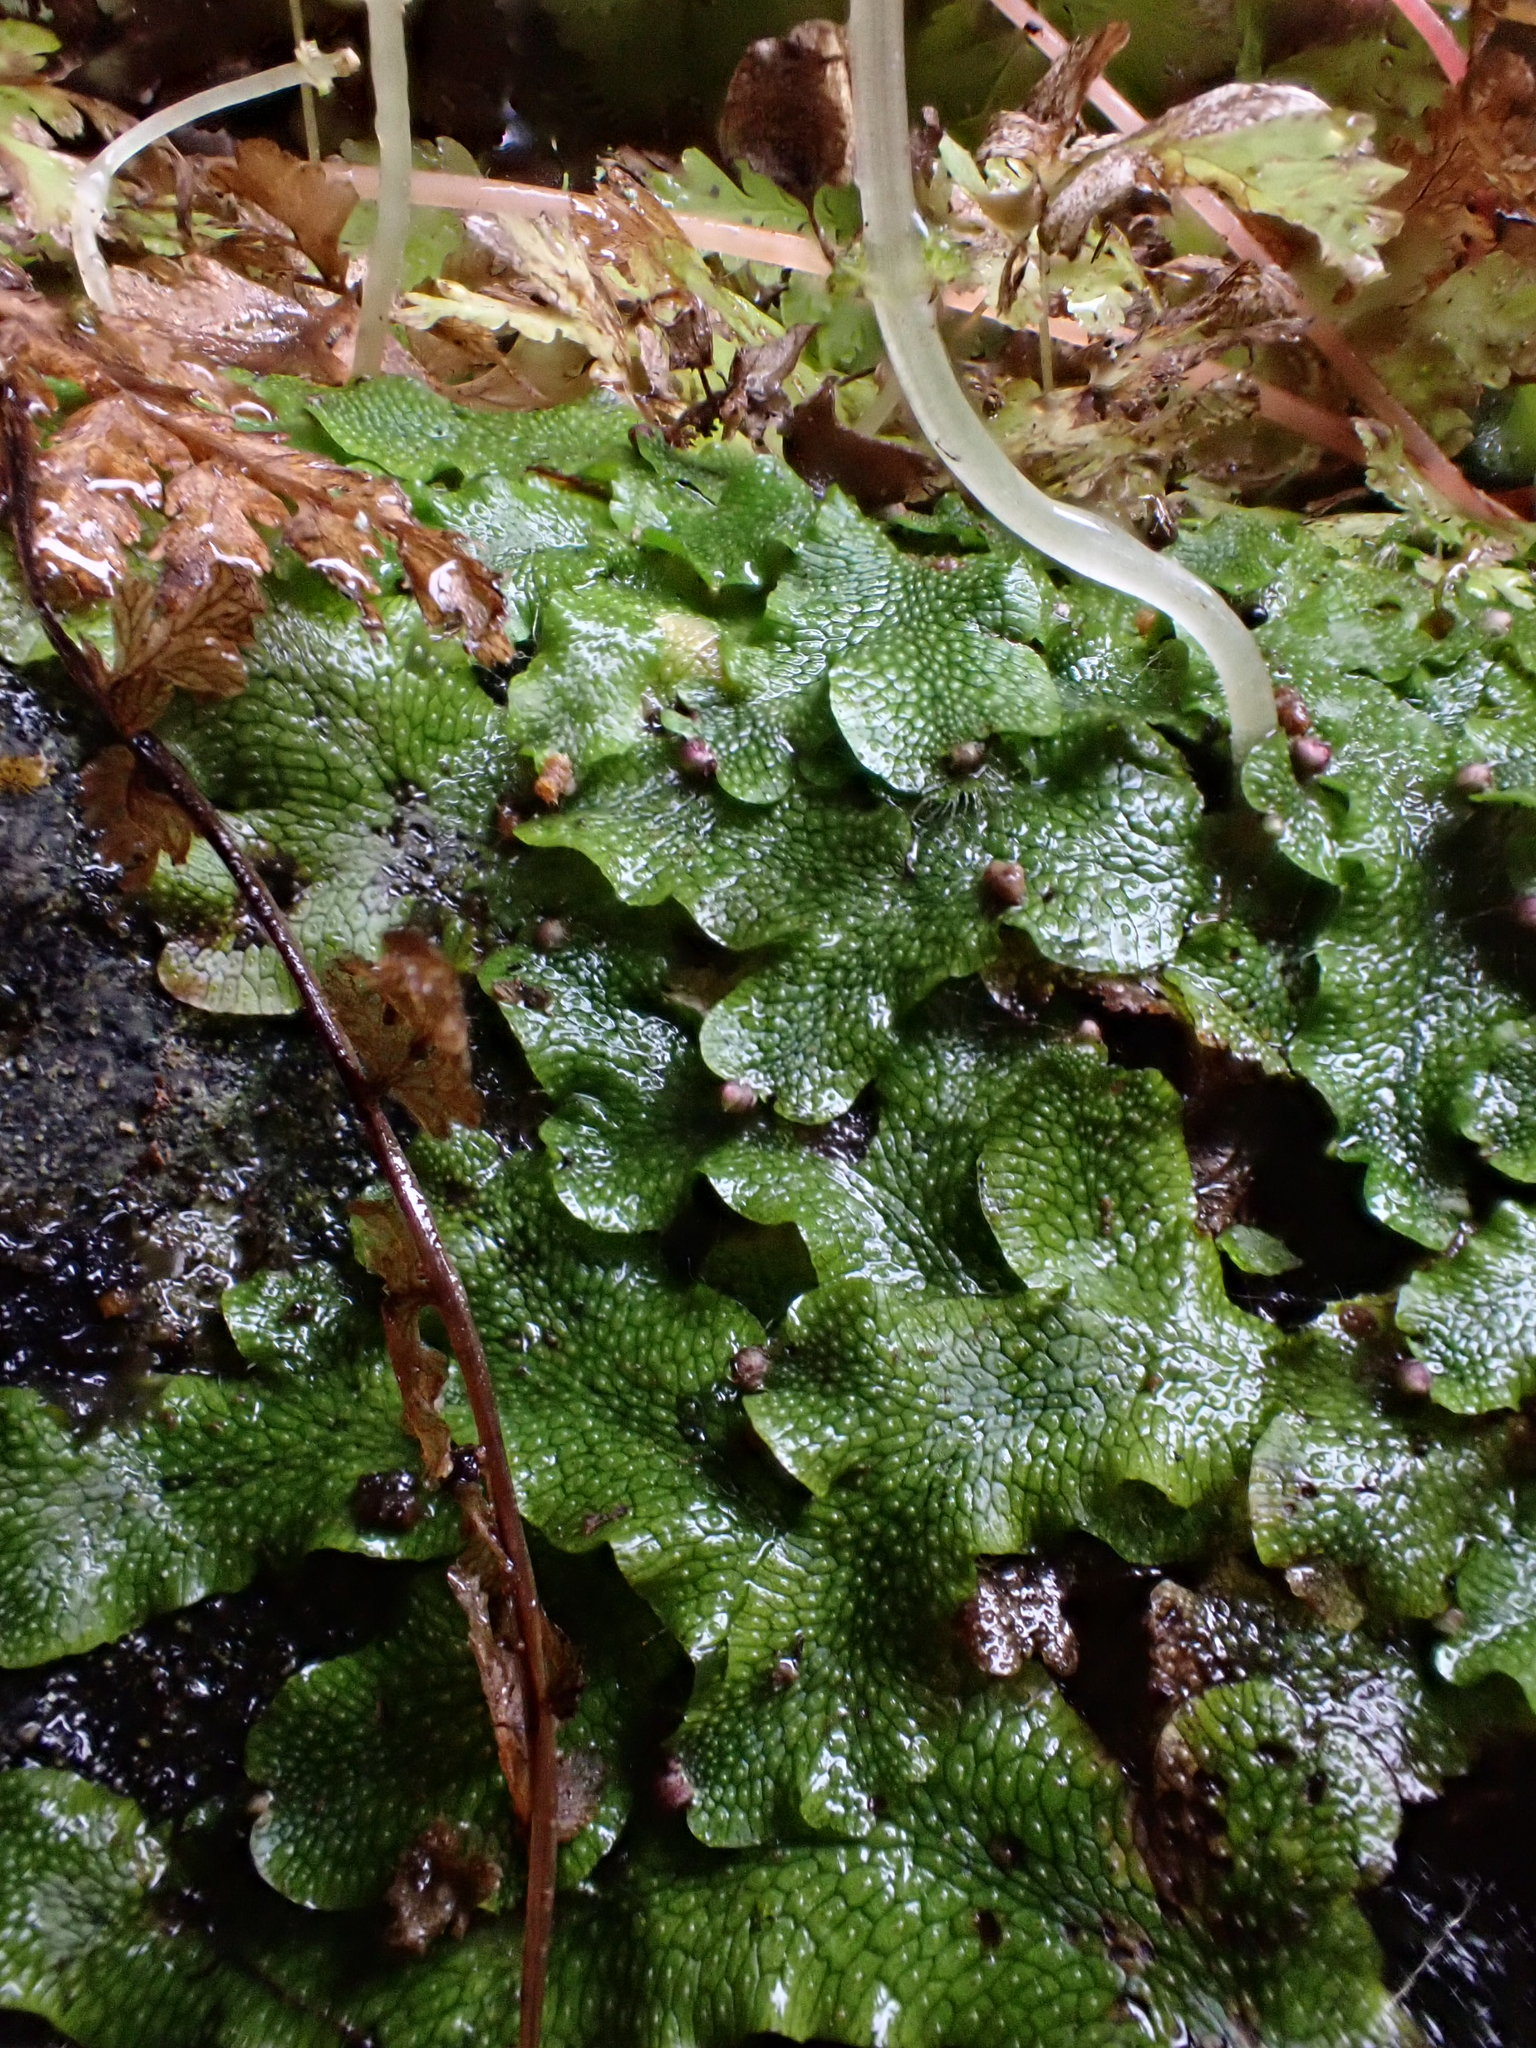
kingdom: Plantae
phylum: Marchantiophyta
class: Marchantiopsida
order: Marchantiales
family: Conocephalaceae
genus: Conocephalum
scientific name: Conocephalum salebrosum
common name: Cat-tongue liverwort
